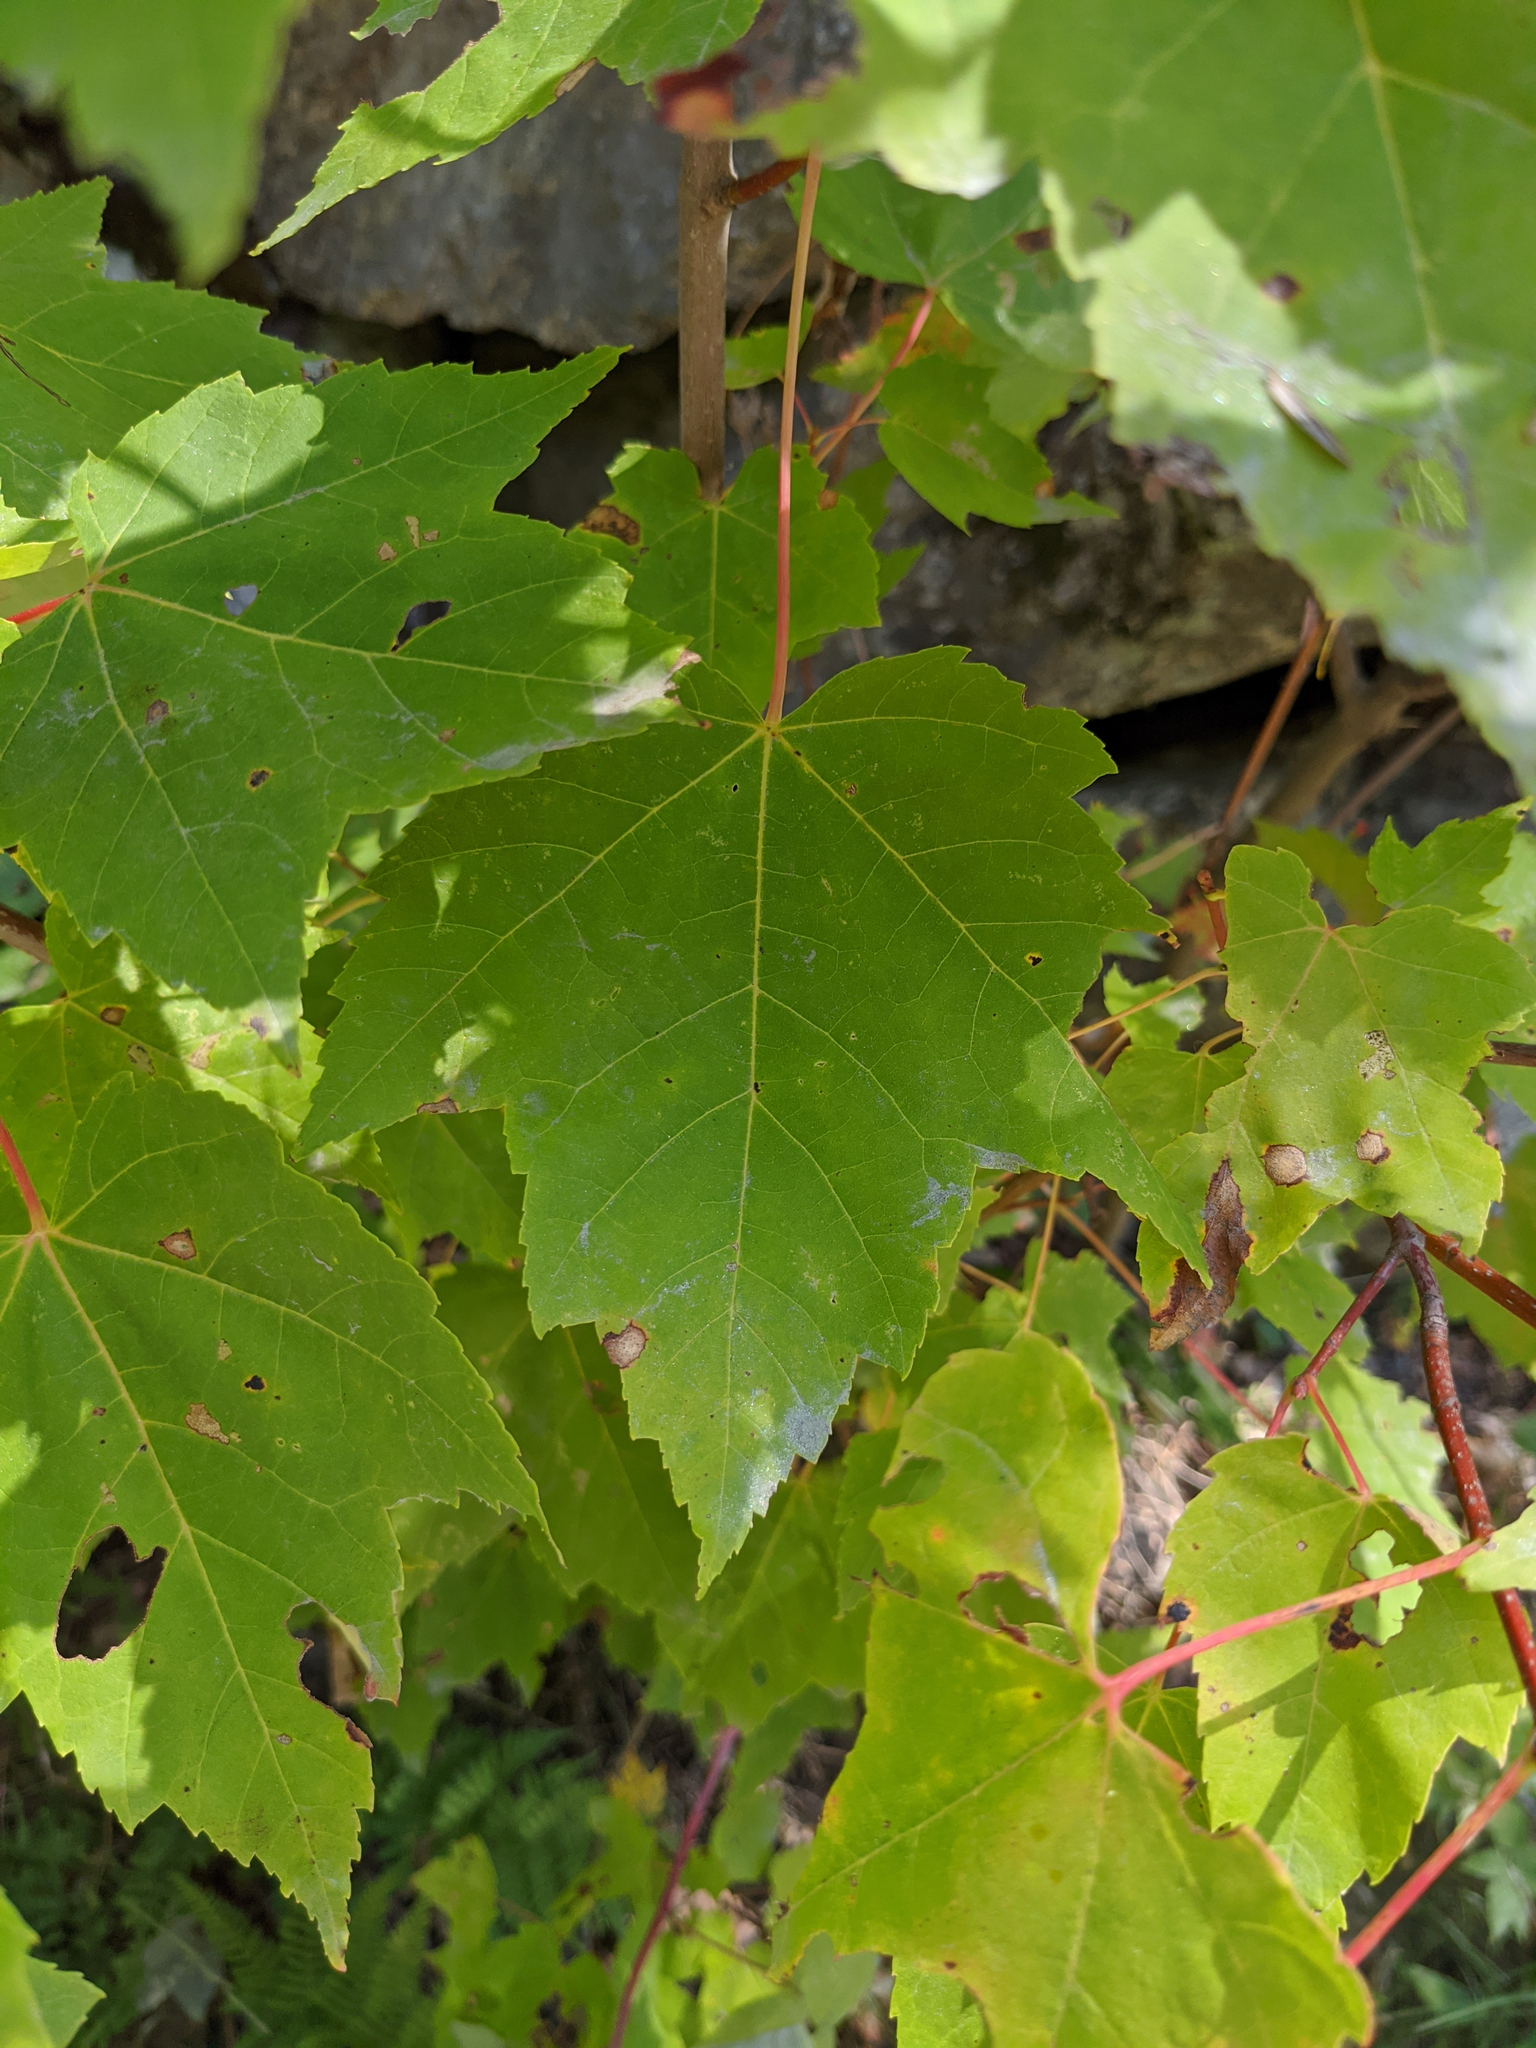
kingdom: Plantae
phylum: Tracheophyta
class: Magnoliopsida
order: Sapindales
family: Sapindaceae
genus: Acer
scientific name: Acer rubrum
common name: Red maple
